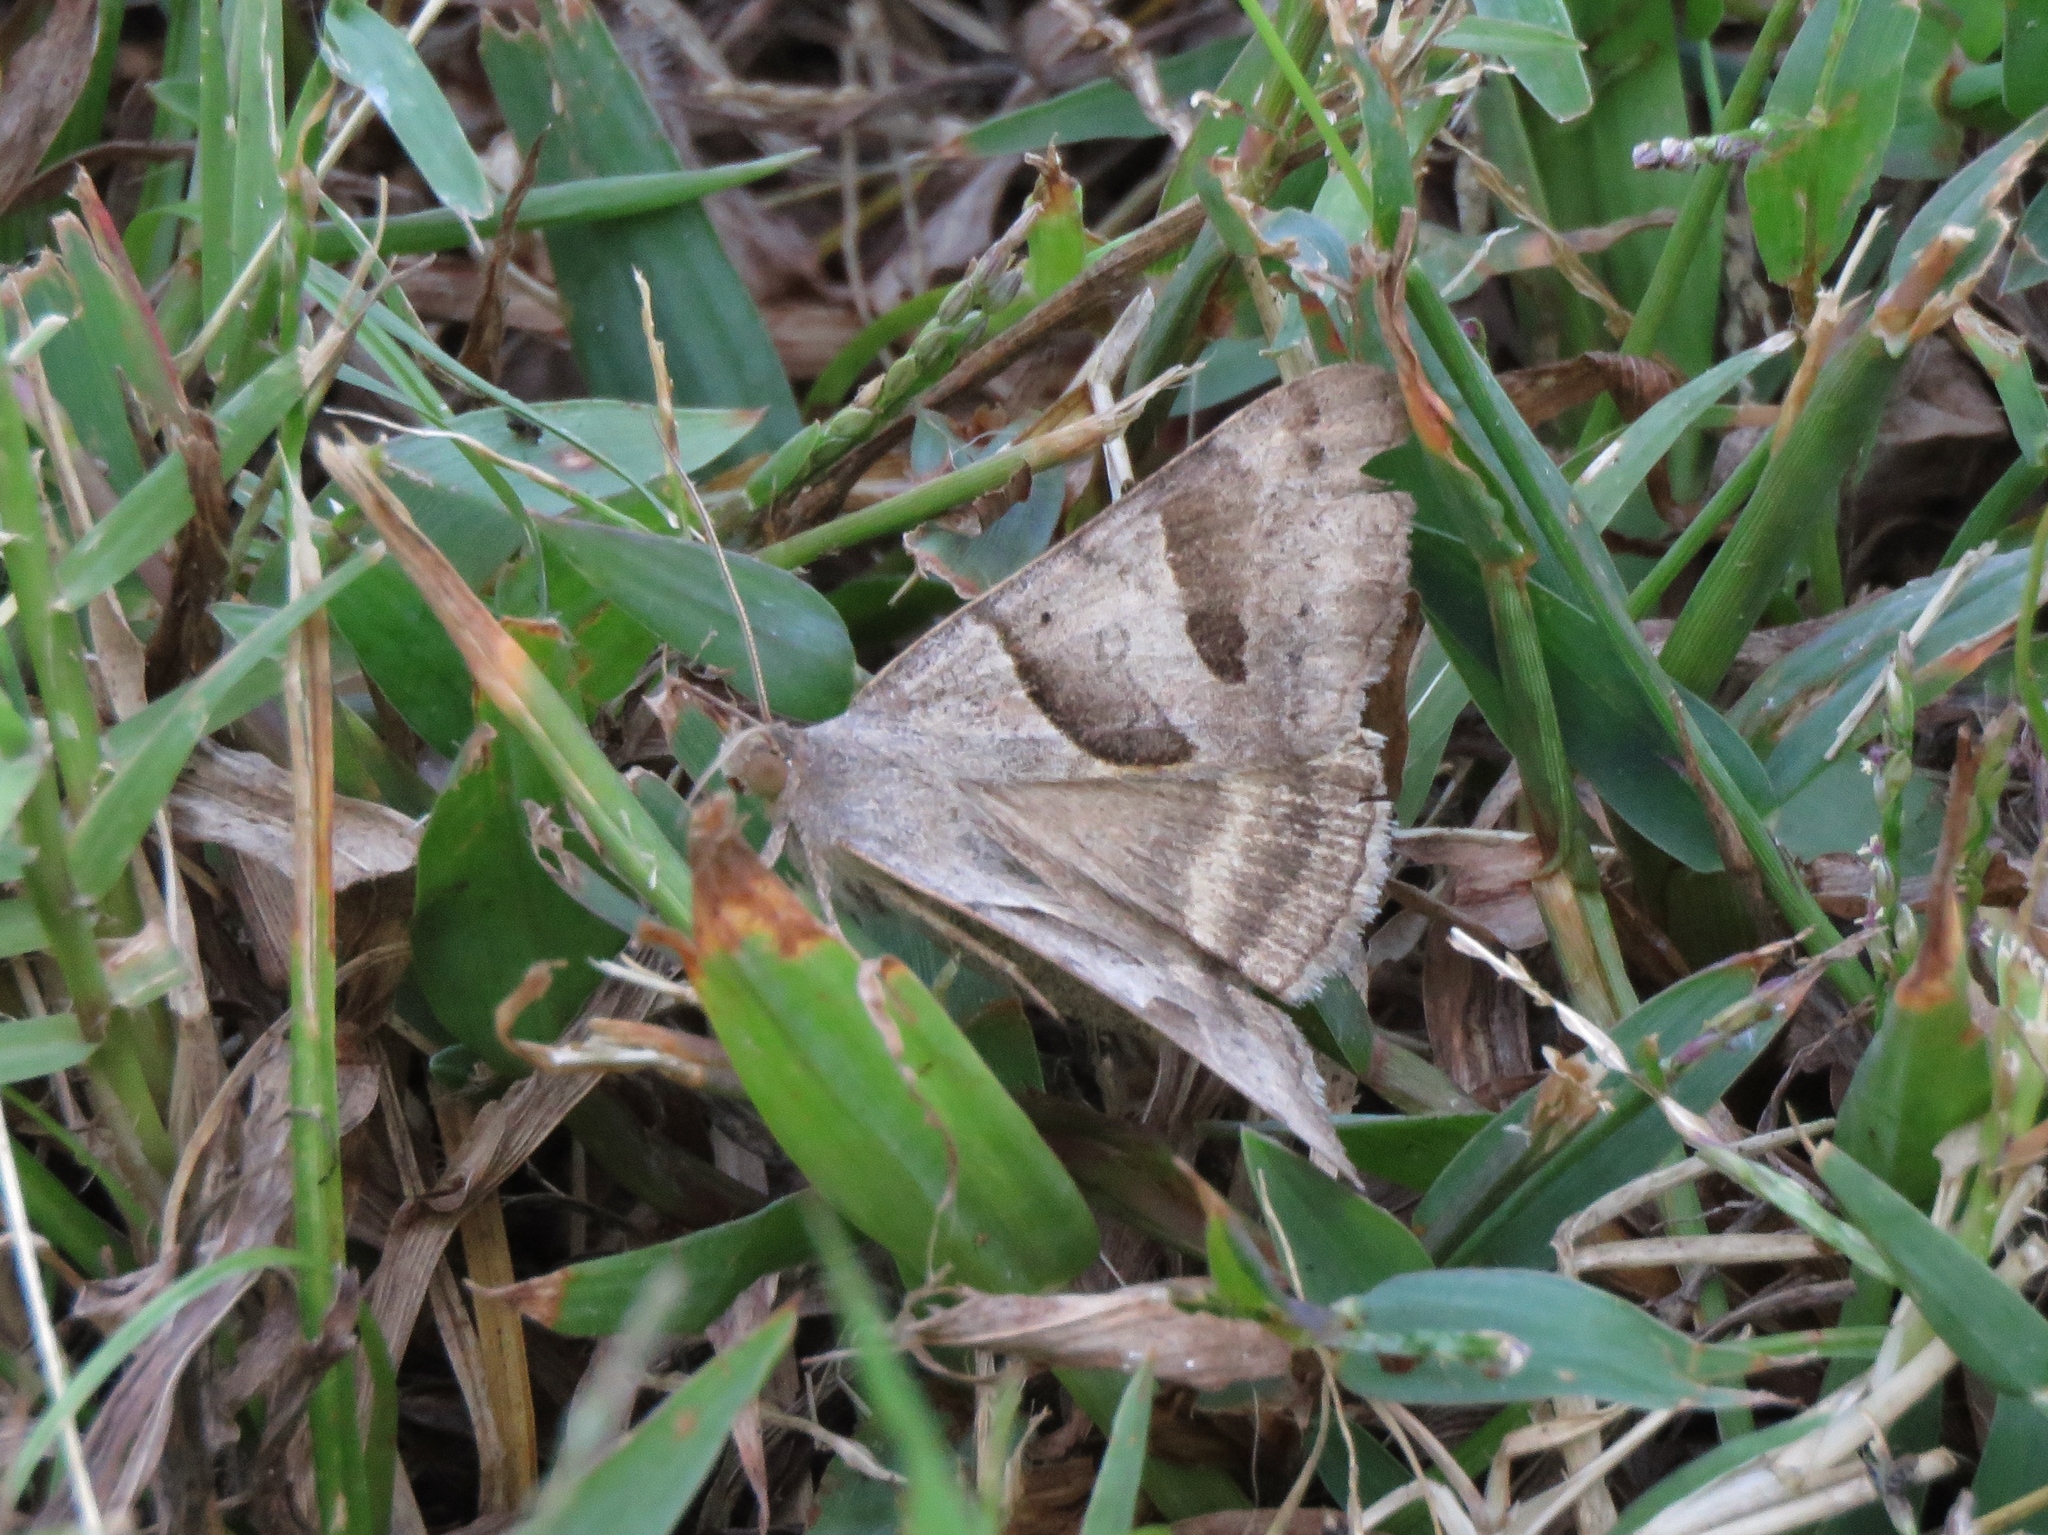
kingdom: Animalia
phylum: Arthropoda
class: Insecta
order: Lepidoptera
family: Erebidae
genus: Caenurgina
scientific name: Caenurgina erechtea
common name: Forage looper moth
